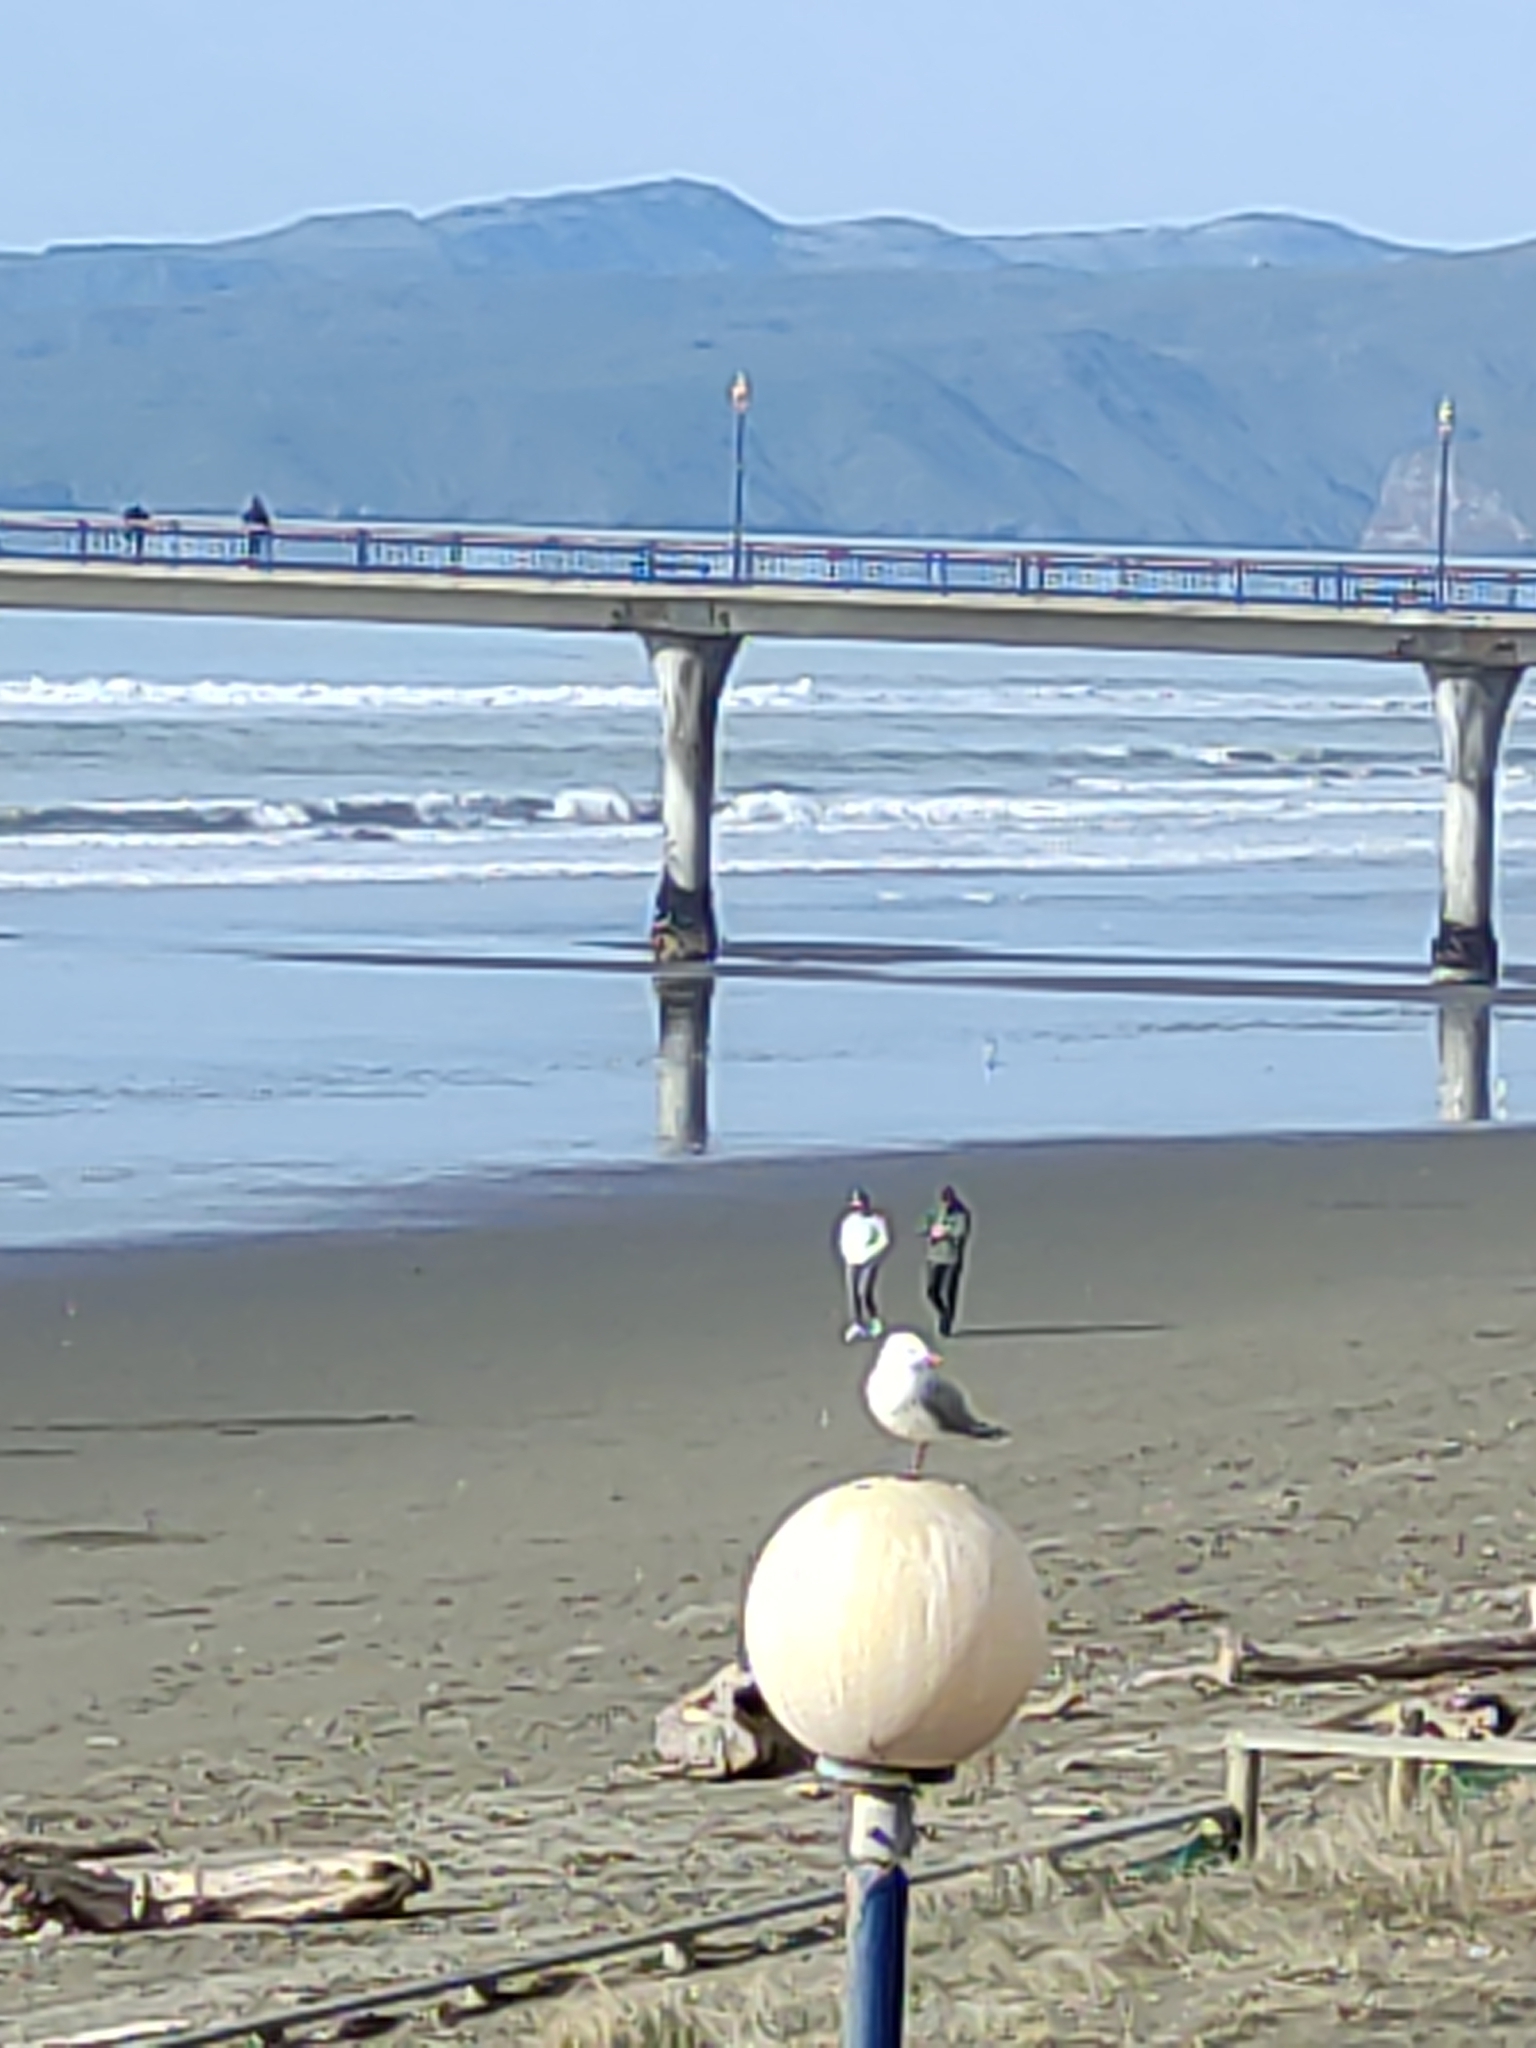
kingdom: Animalia
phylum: Chordata
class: Aves
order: Charadriiformes
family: Laridae
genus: Chroicocephalus
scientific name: Chroicocephalus novaehollandiae
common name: Silver gull
